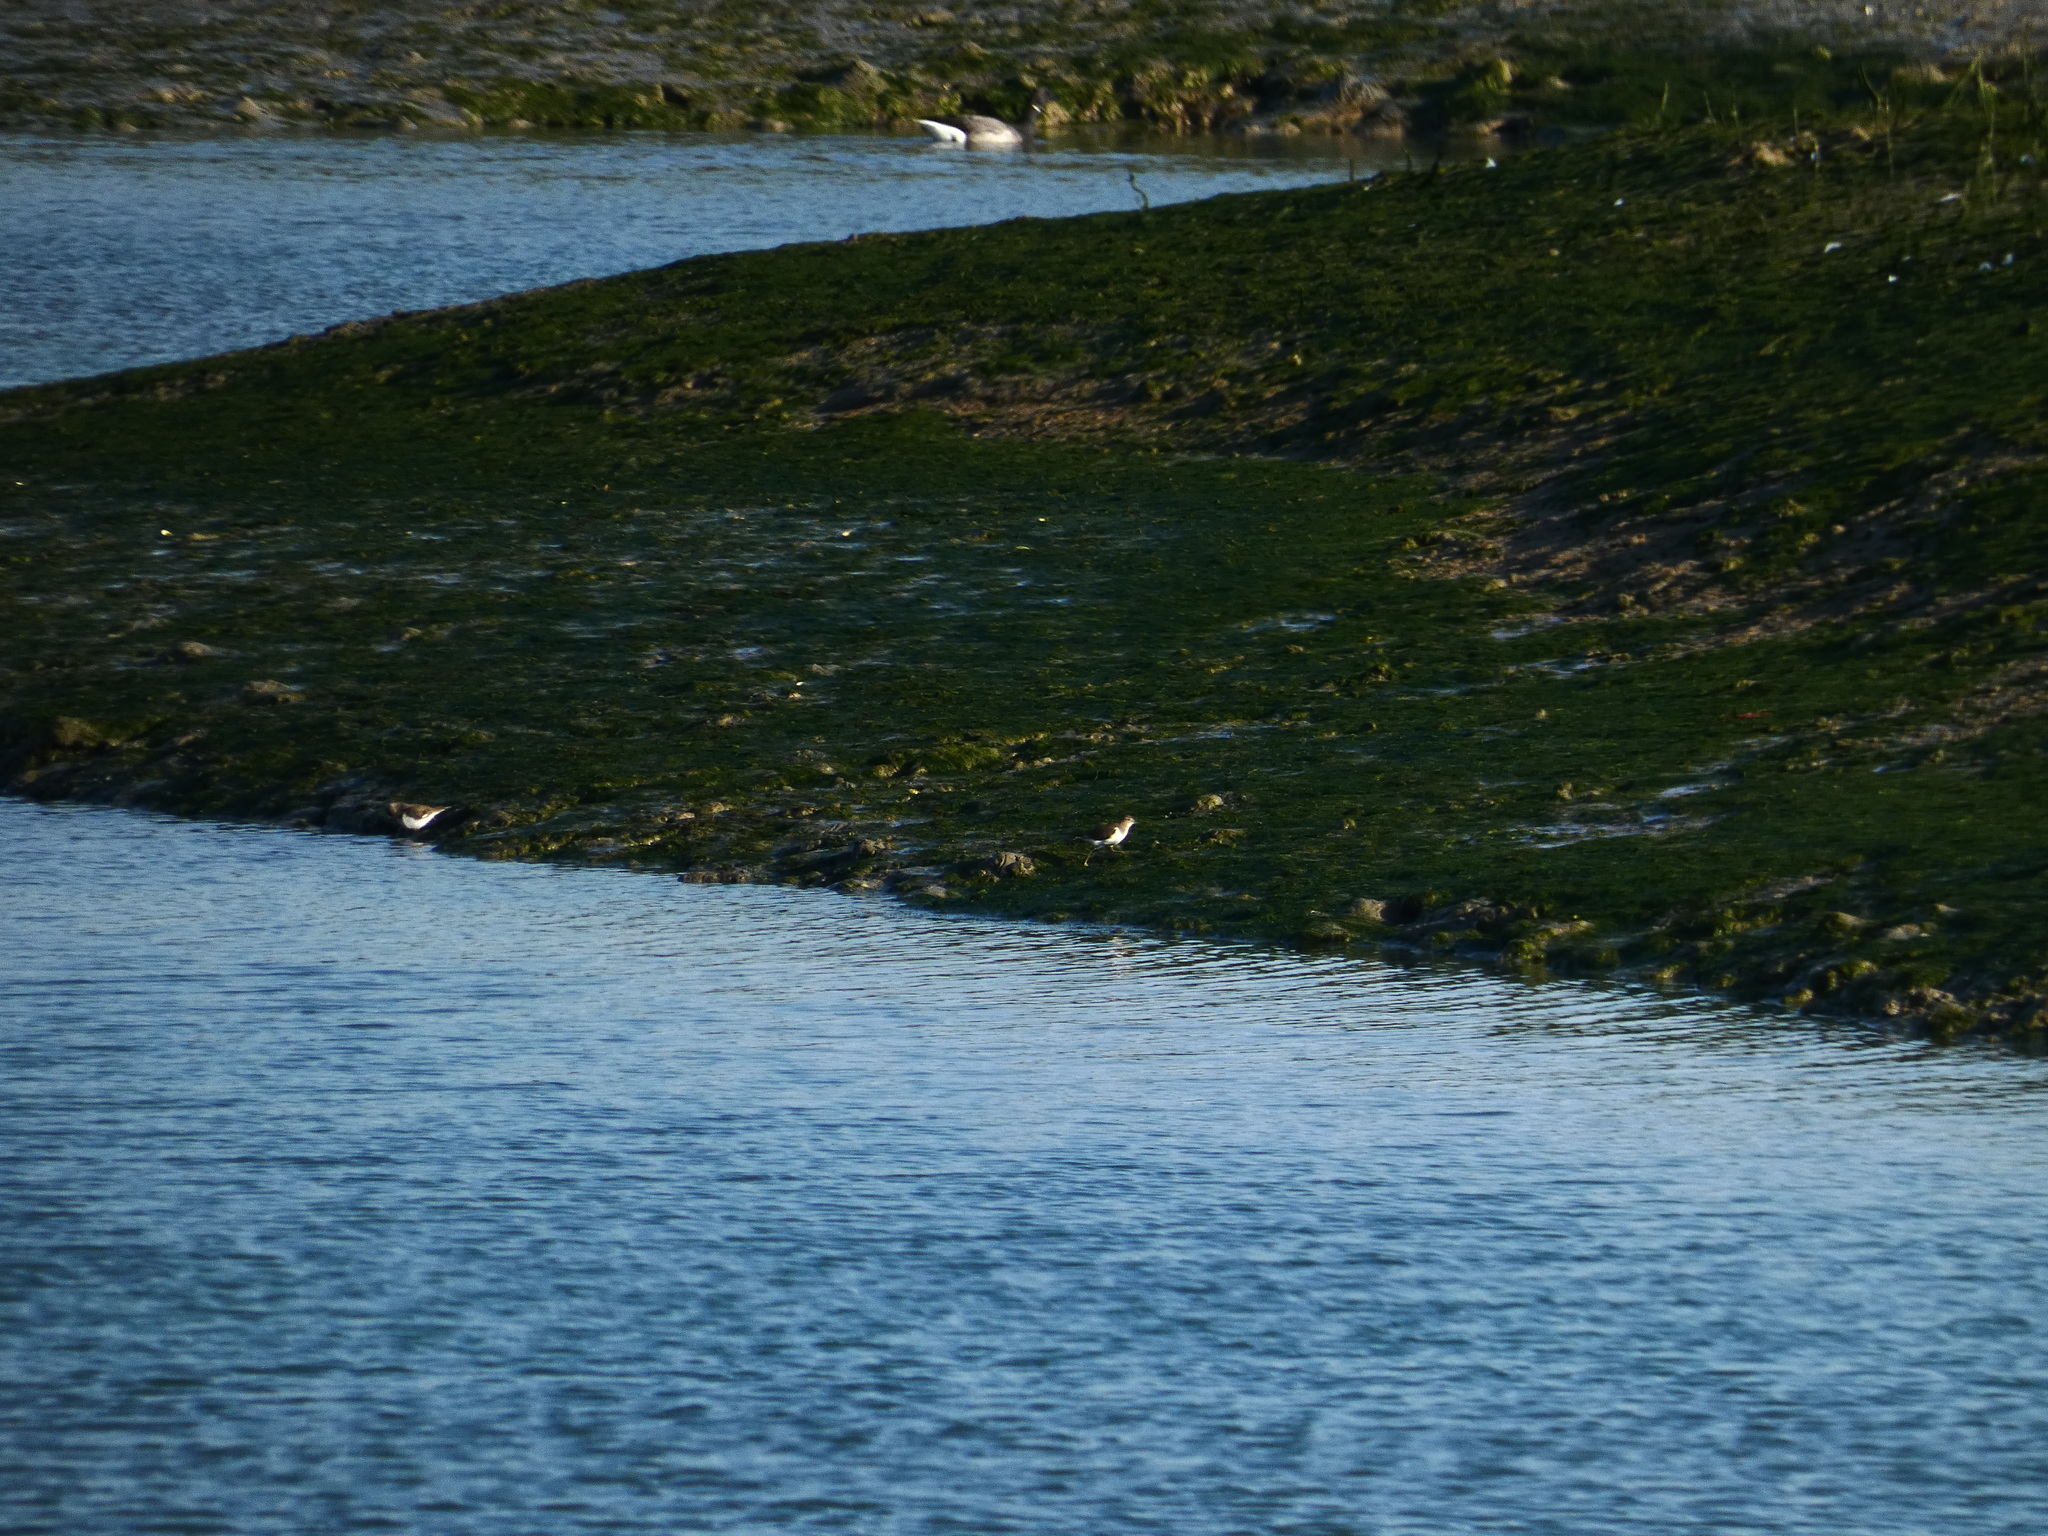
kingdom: Animalia
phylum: Chordata
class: Aves
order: Charadriiformes
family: Scolopacidae
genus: Actitis
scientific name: Actitis hypoleucos
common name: Common sandpiper
